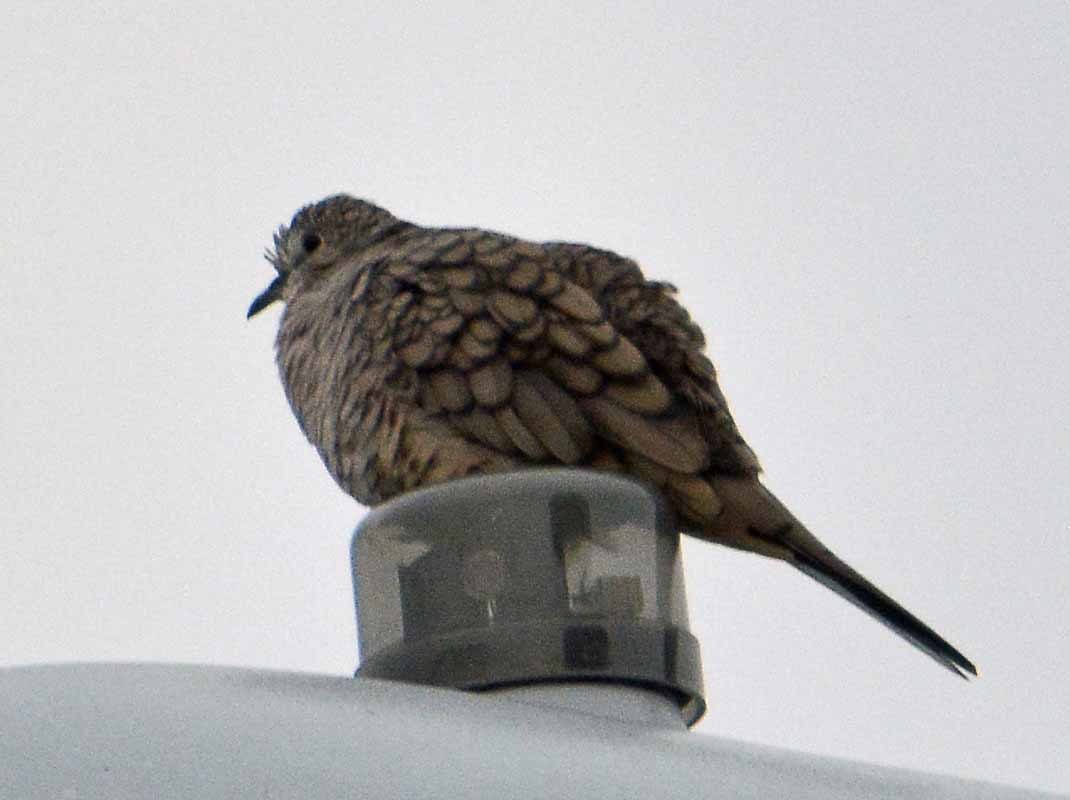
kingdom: Animalia
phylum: Chordata
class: Aves
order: Columbiformes
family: Columbidae
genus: Columbina
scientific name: Columbina inca
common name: Inca dove
